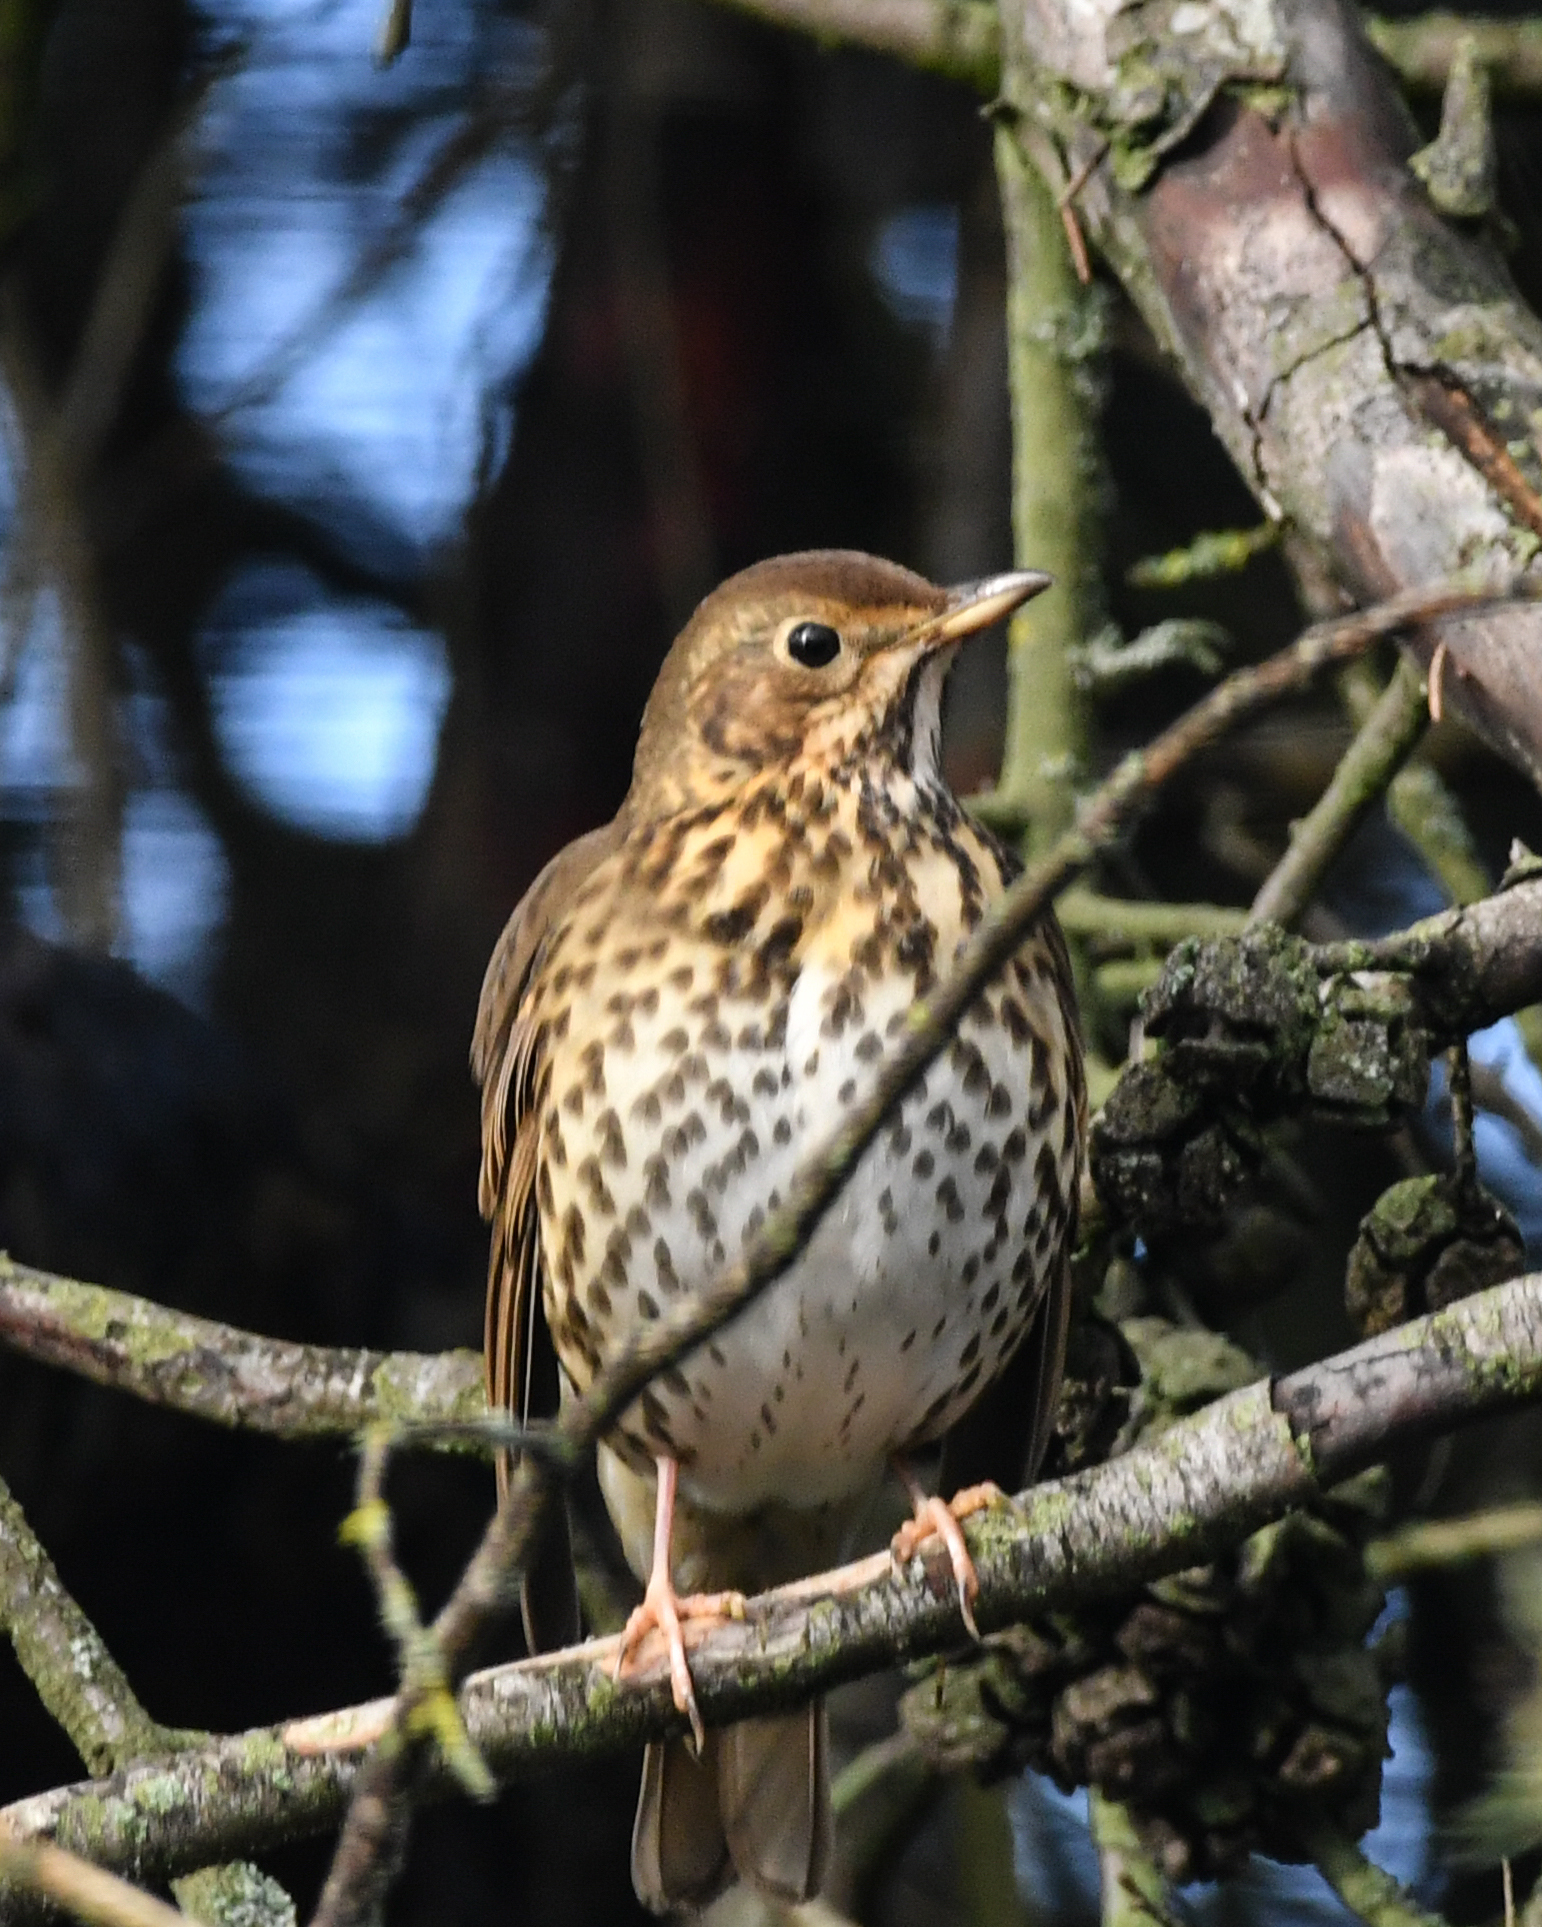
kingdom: Animalia
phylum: Chordata
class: Aves
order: Passeriformes
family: Turdidae
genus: Turdus
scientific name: Turdus philomelos
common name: Song thrush
